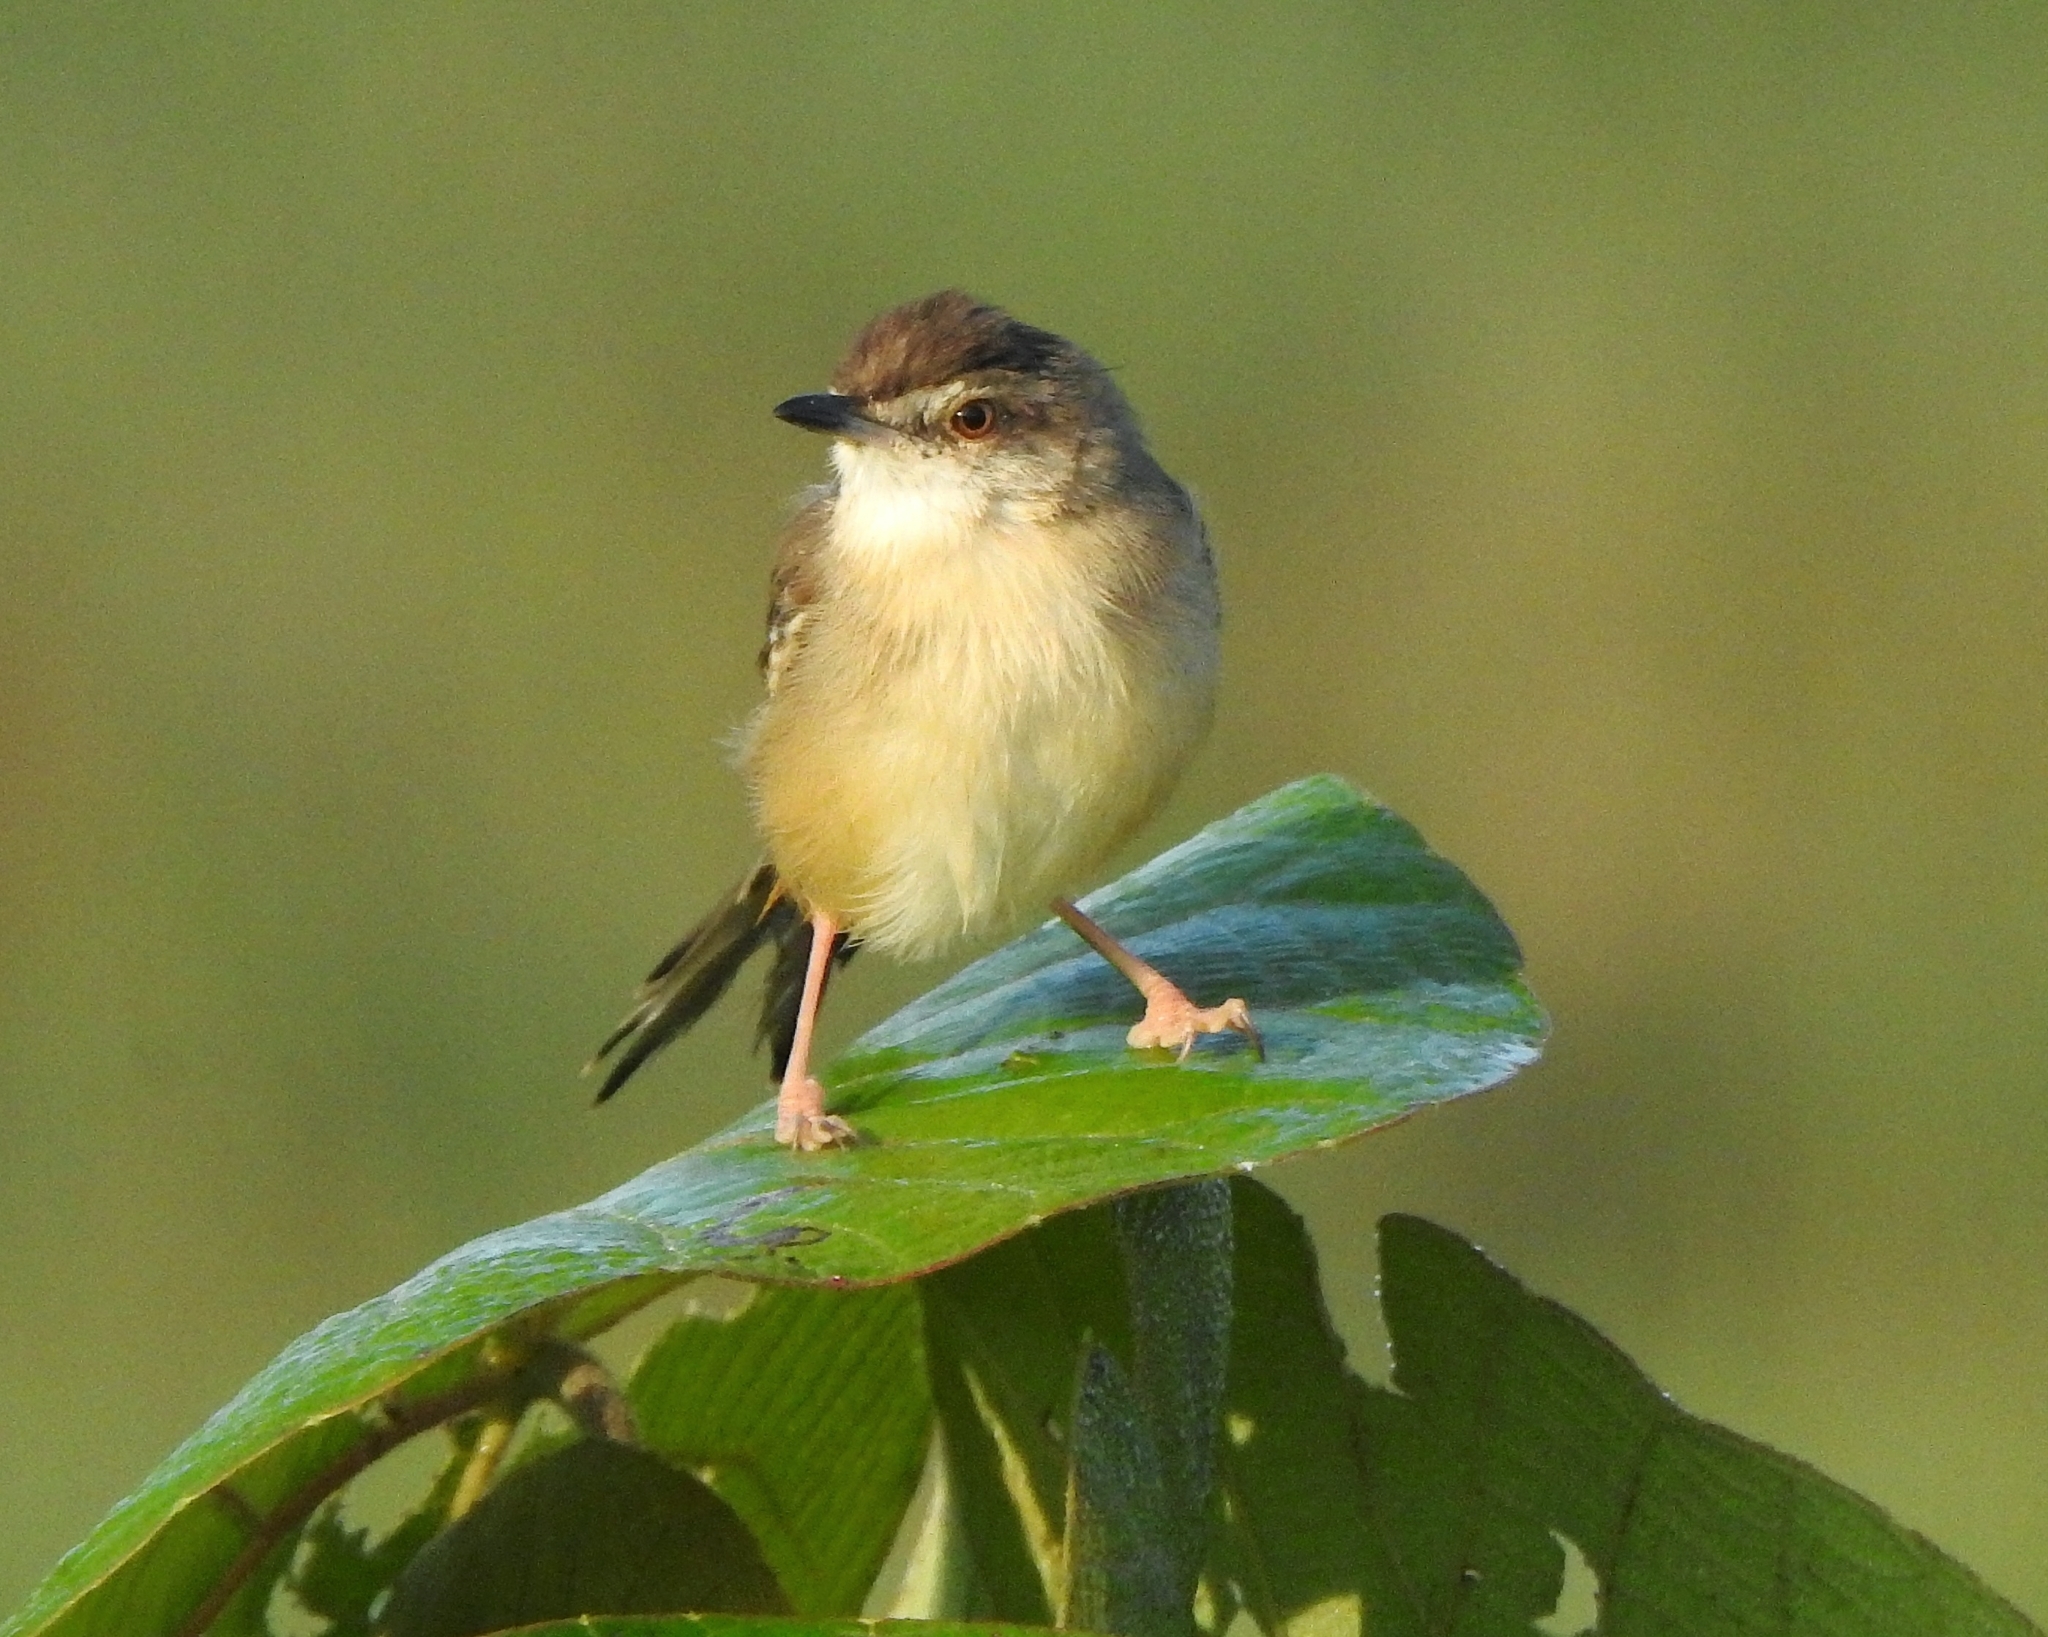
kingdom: Animalia
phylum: Chordata
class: Aves
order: Passeriformes
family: Cisticolidae
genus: Prinia
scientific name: Prinia inornata
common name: Plain prinia
